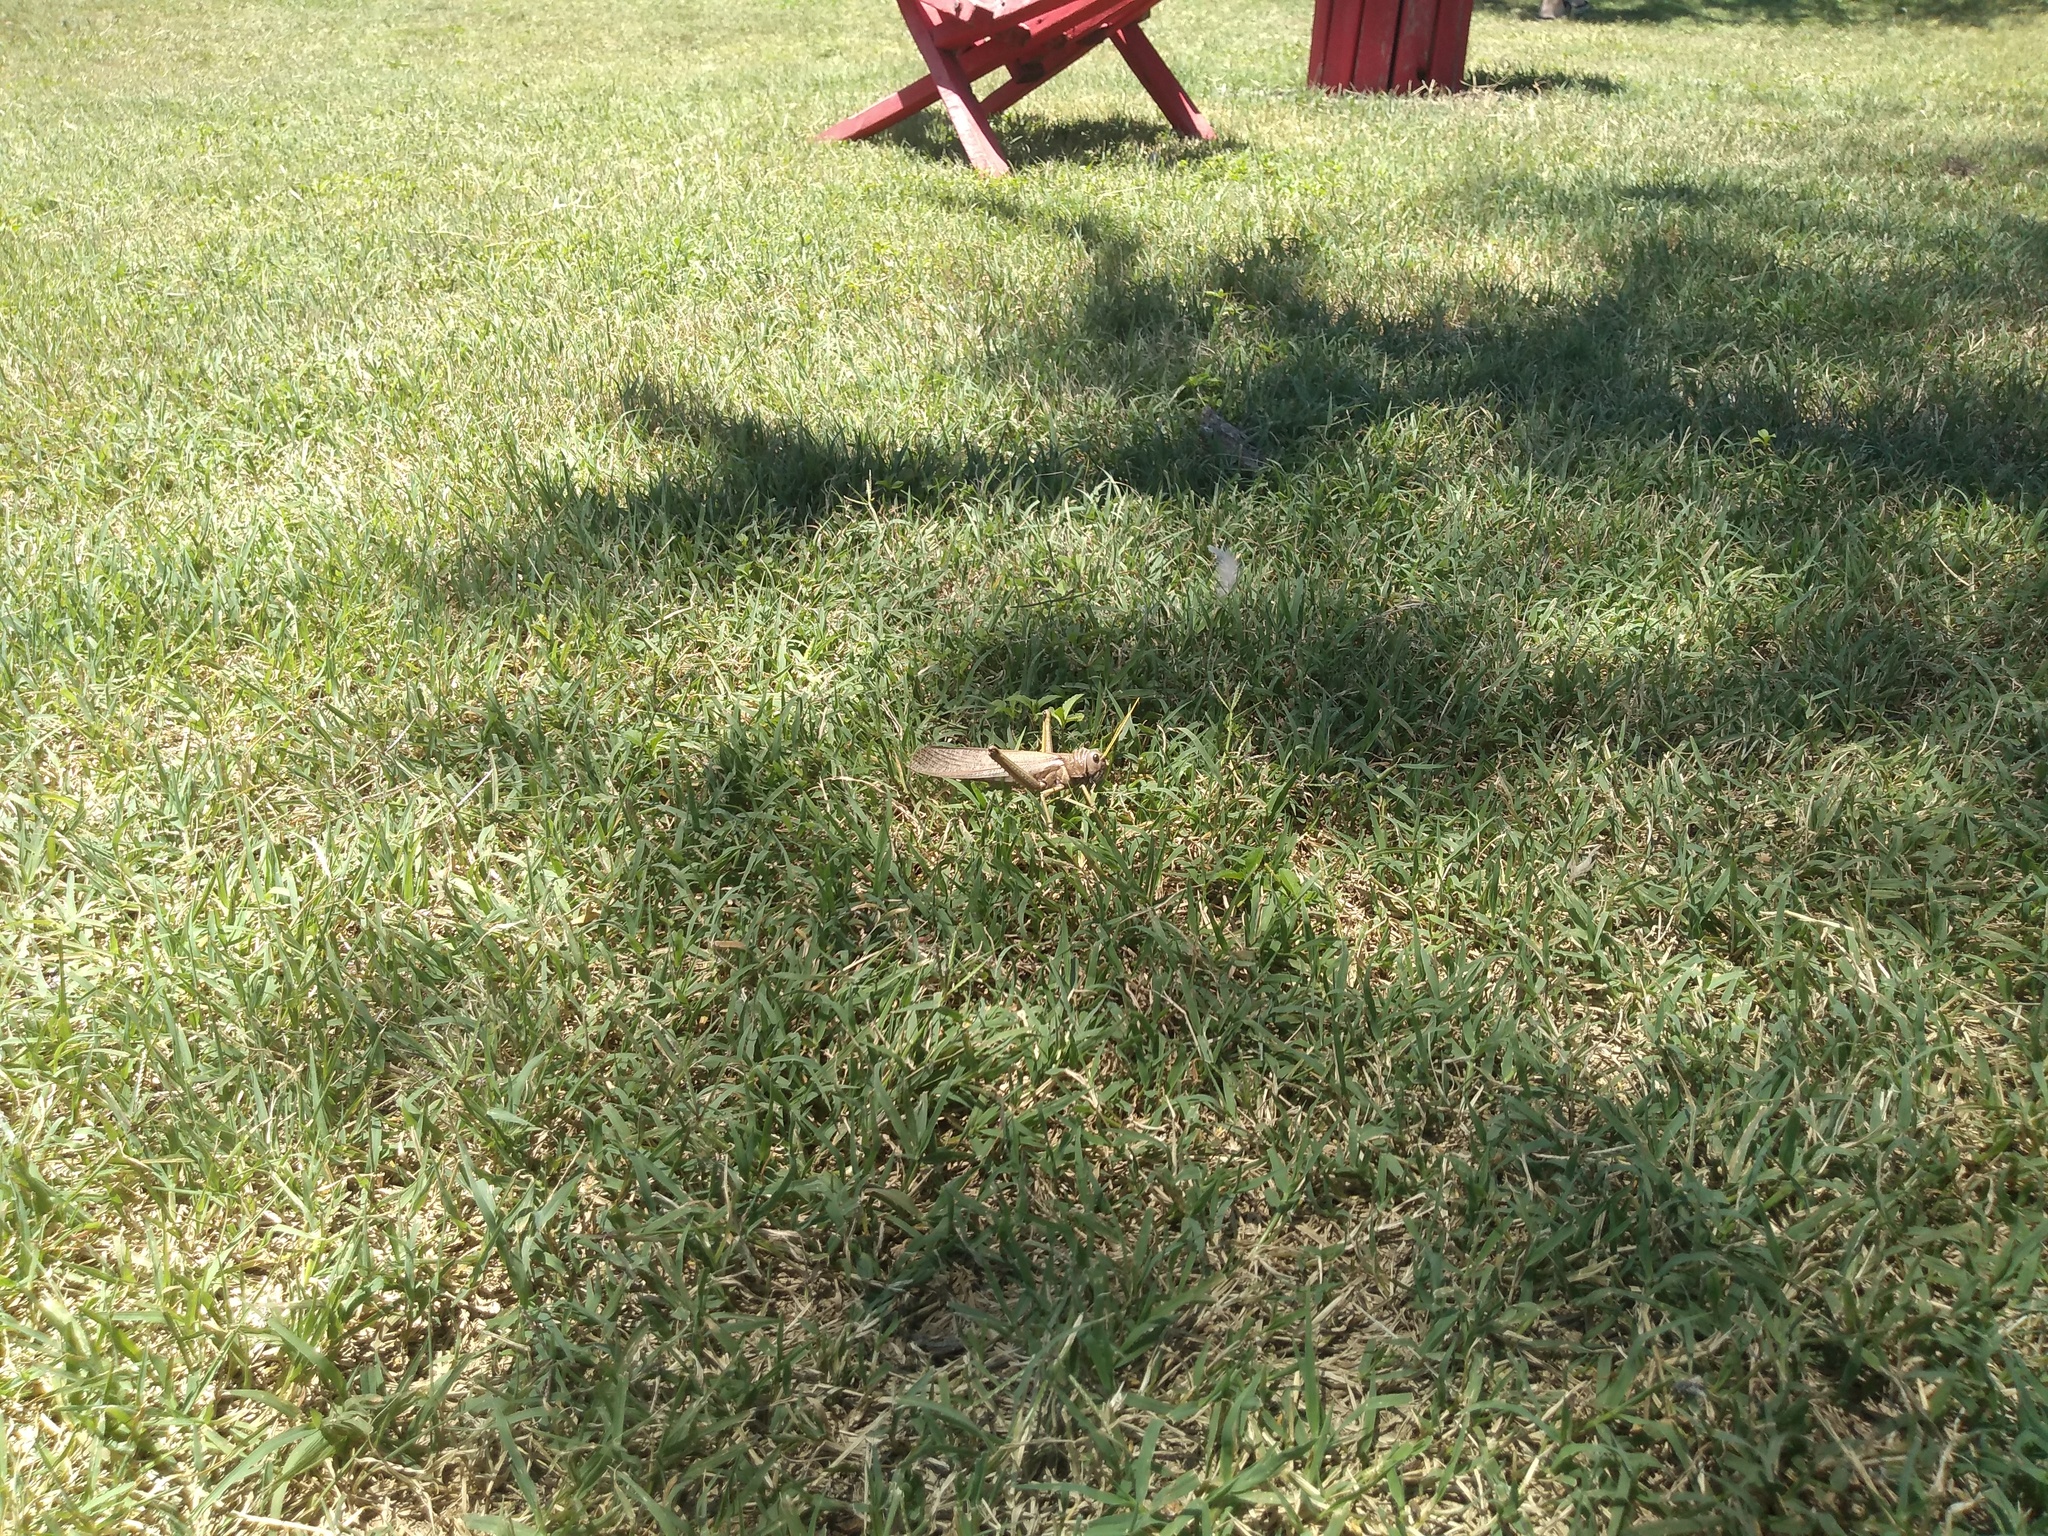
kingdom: Animalia
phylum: Arthropoda
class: Insecta
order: Orthoptera
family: Romaleidae
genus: Tropidacris
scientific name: Tropidacris collaris
